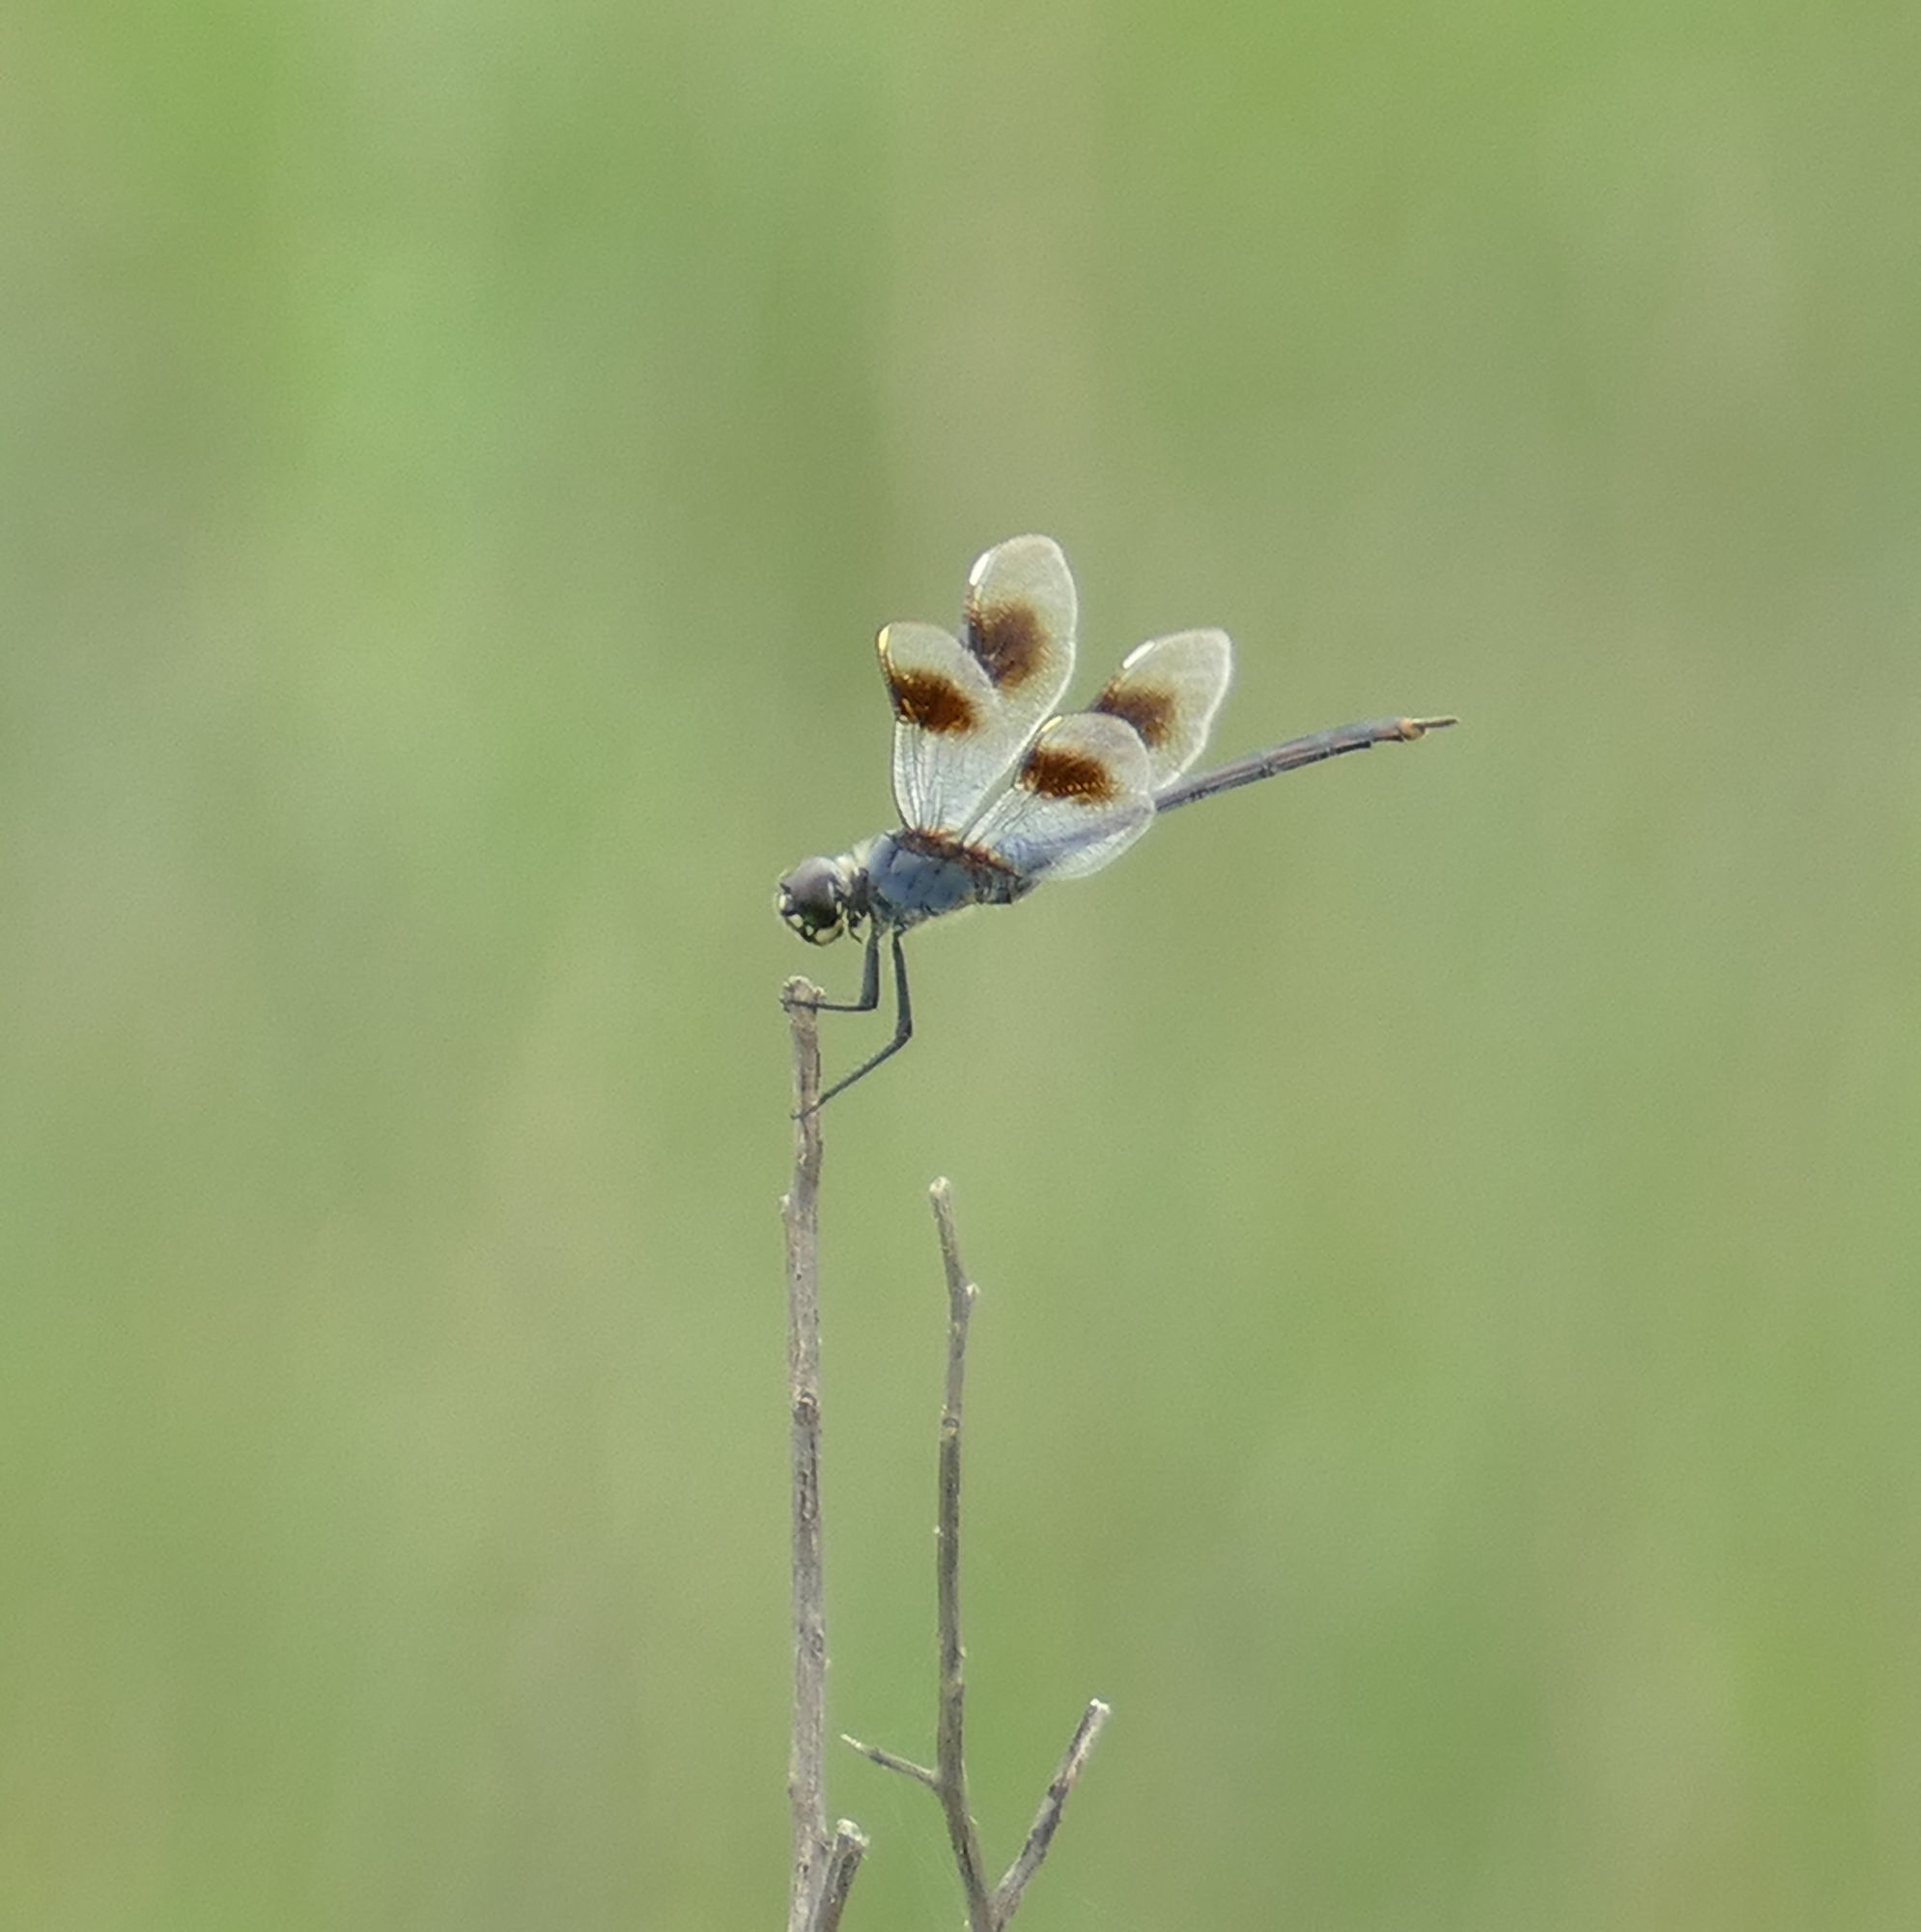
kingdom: Animalia
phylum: Arthropoda
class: Insecta
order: Odonata
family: Libellulidae
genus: Brachymesia
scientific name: Brachymesia gravida
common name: Four-spotted pennant
